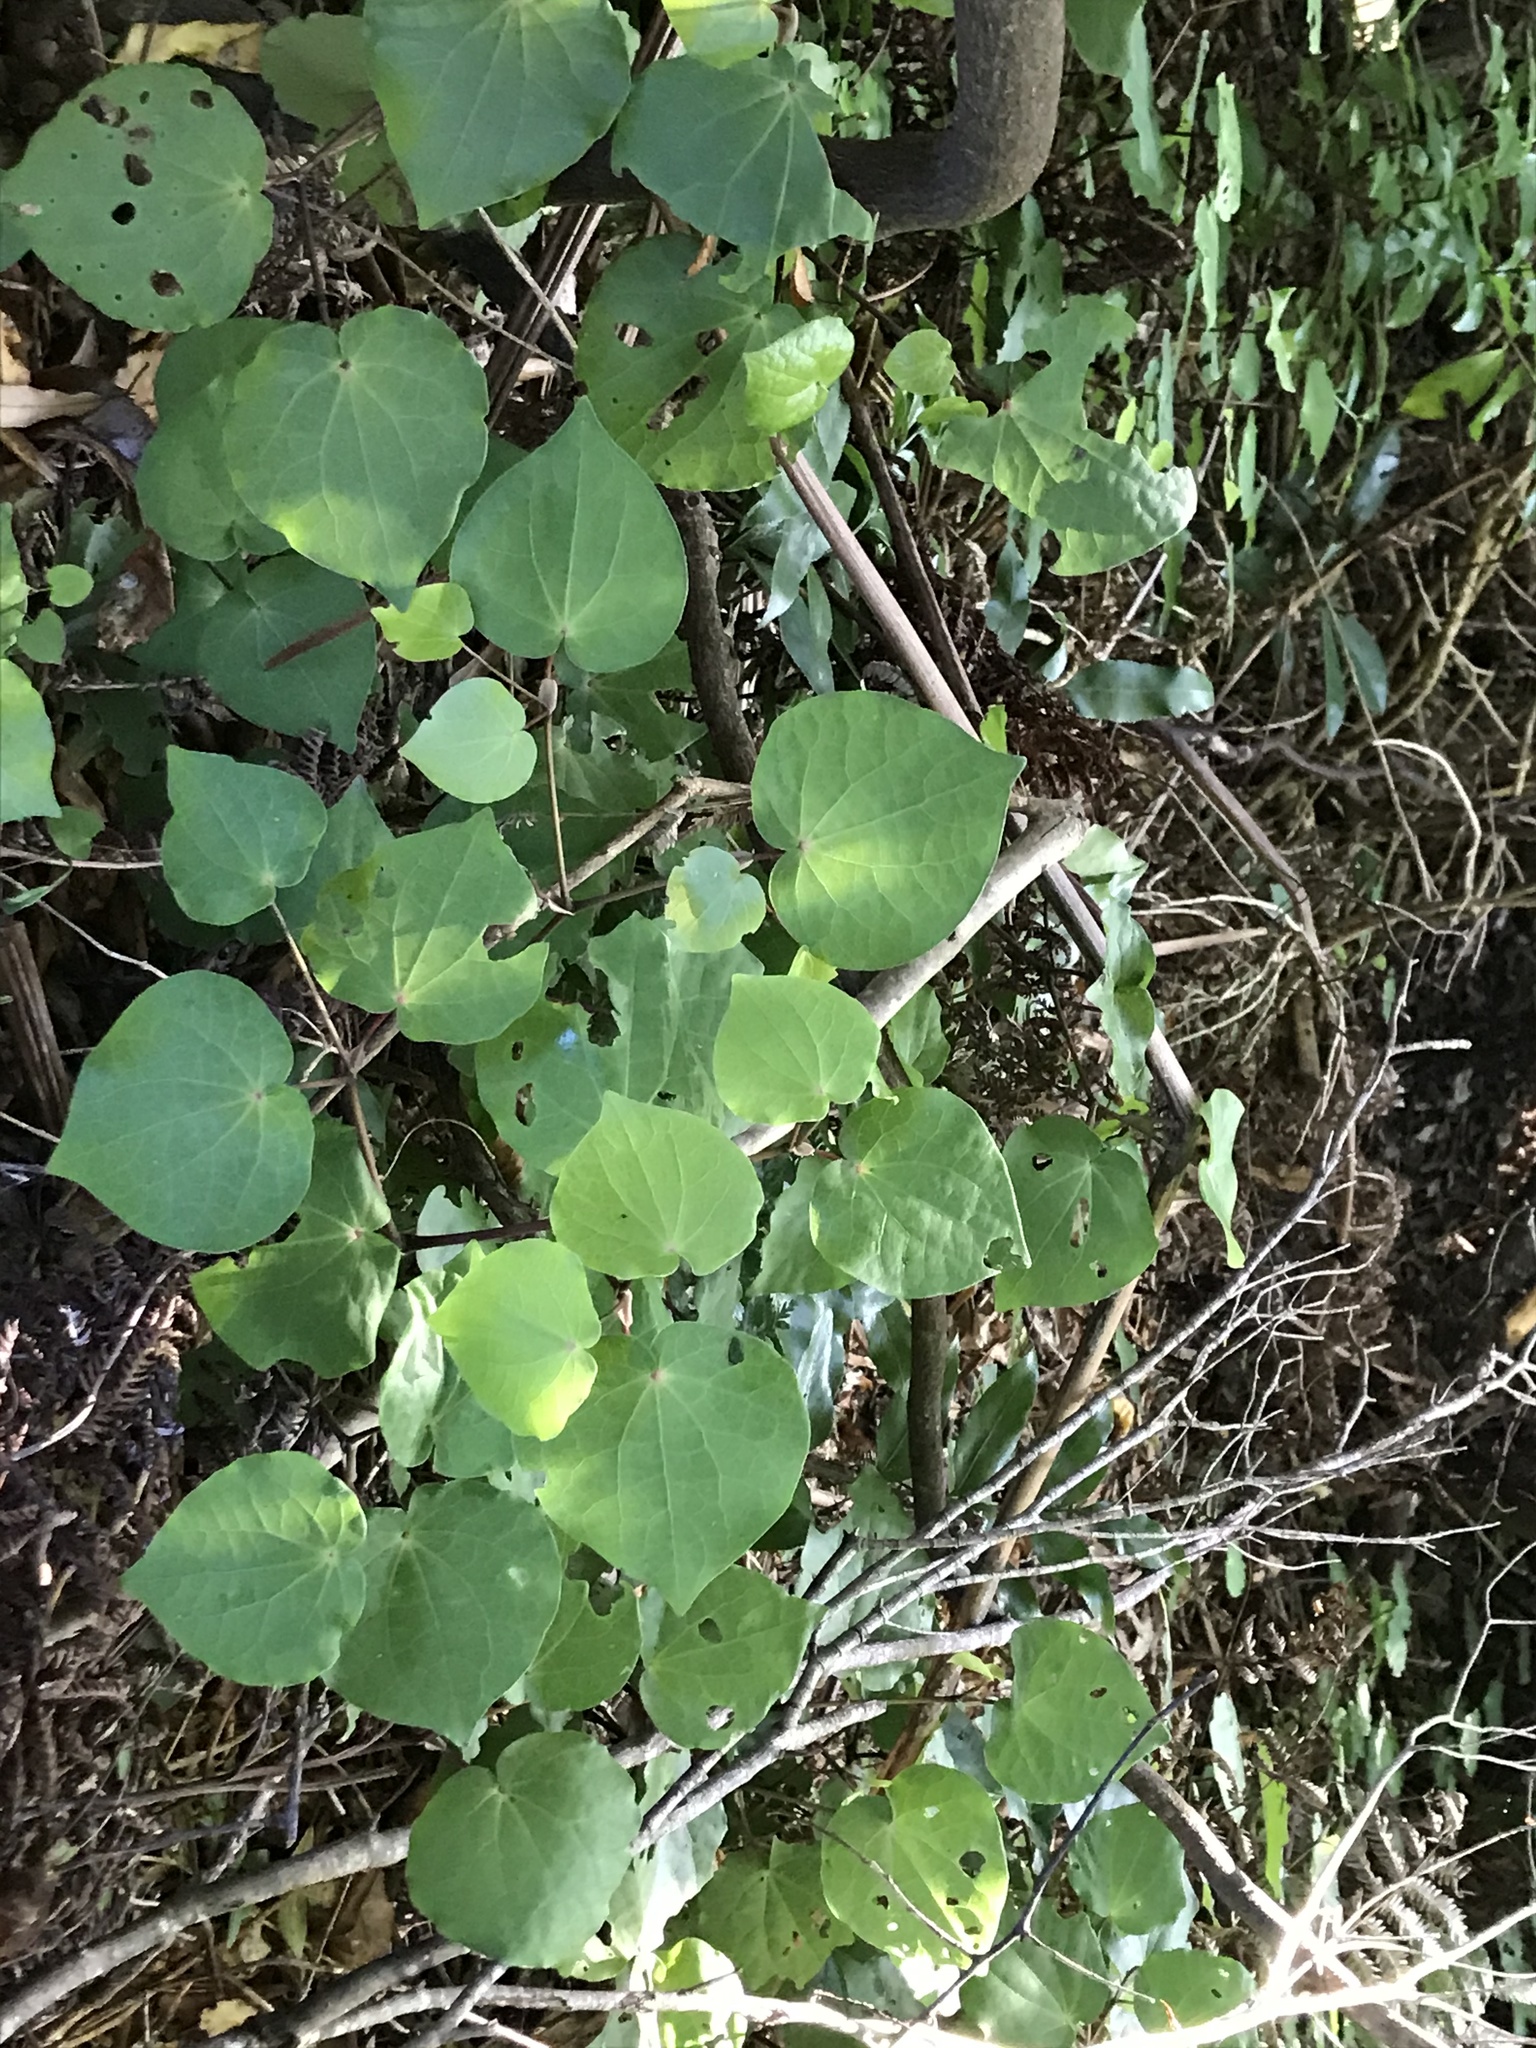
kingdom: Plantae
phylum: Tracheophyta
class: Magnoliopsida
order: Piperales
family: Piperaceae
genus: Macropiper
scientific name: Macropiper excelsum
